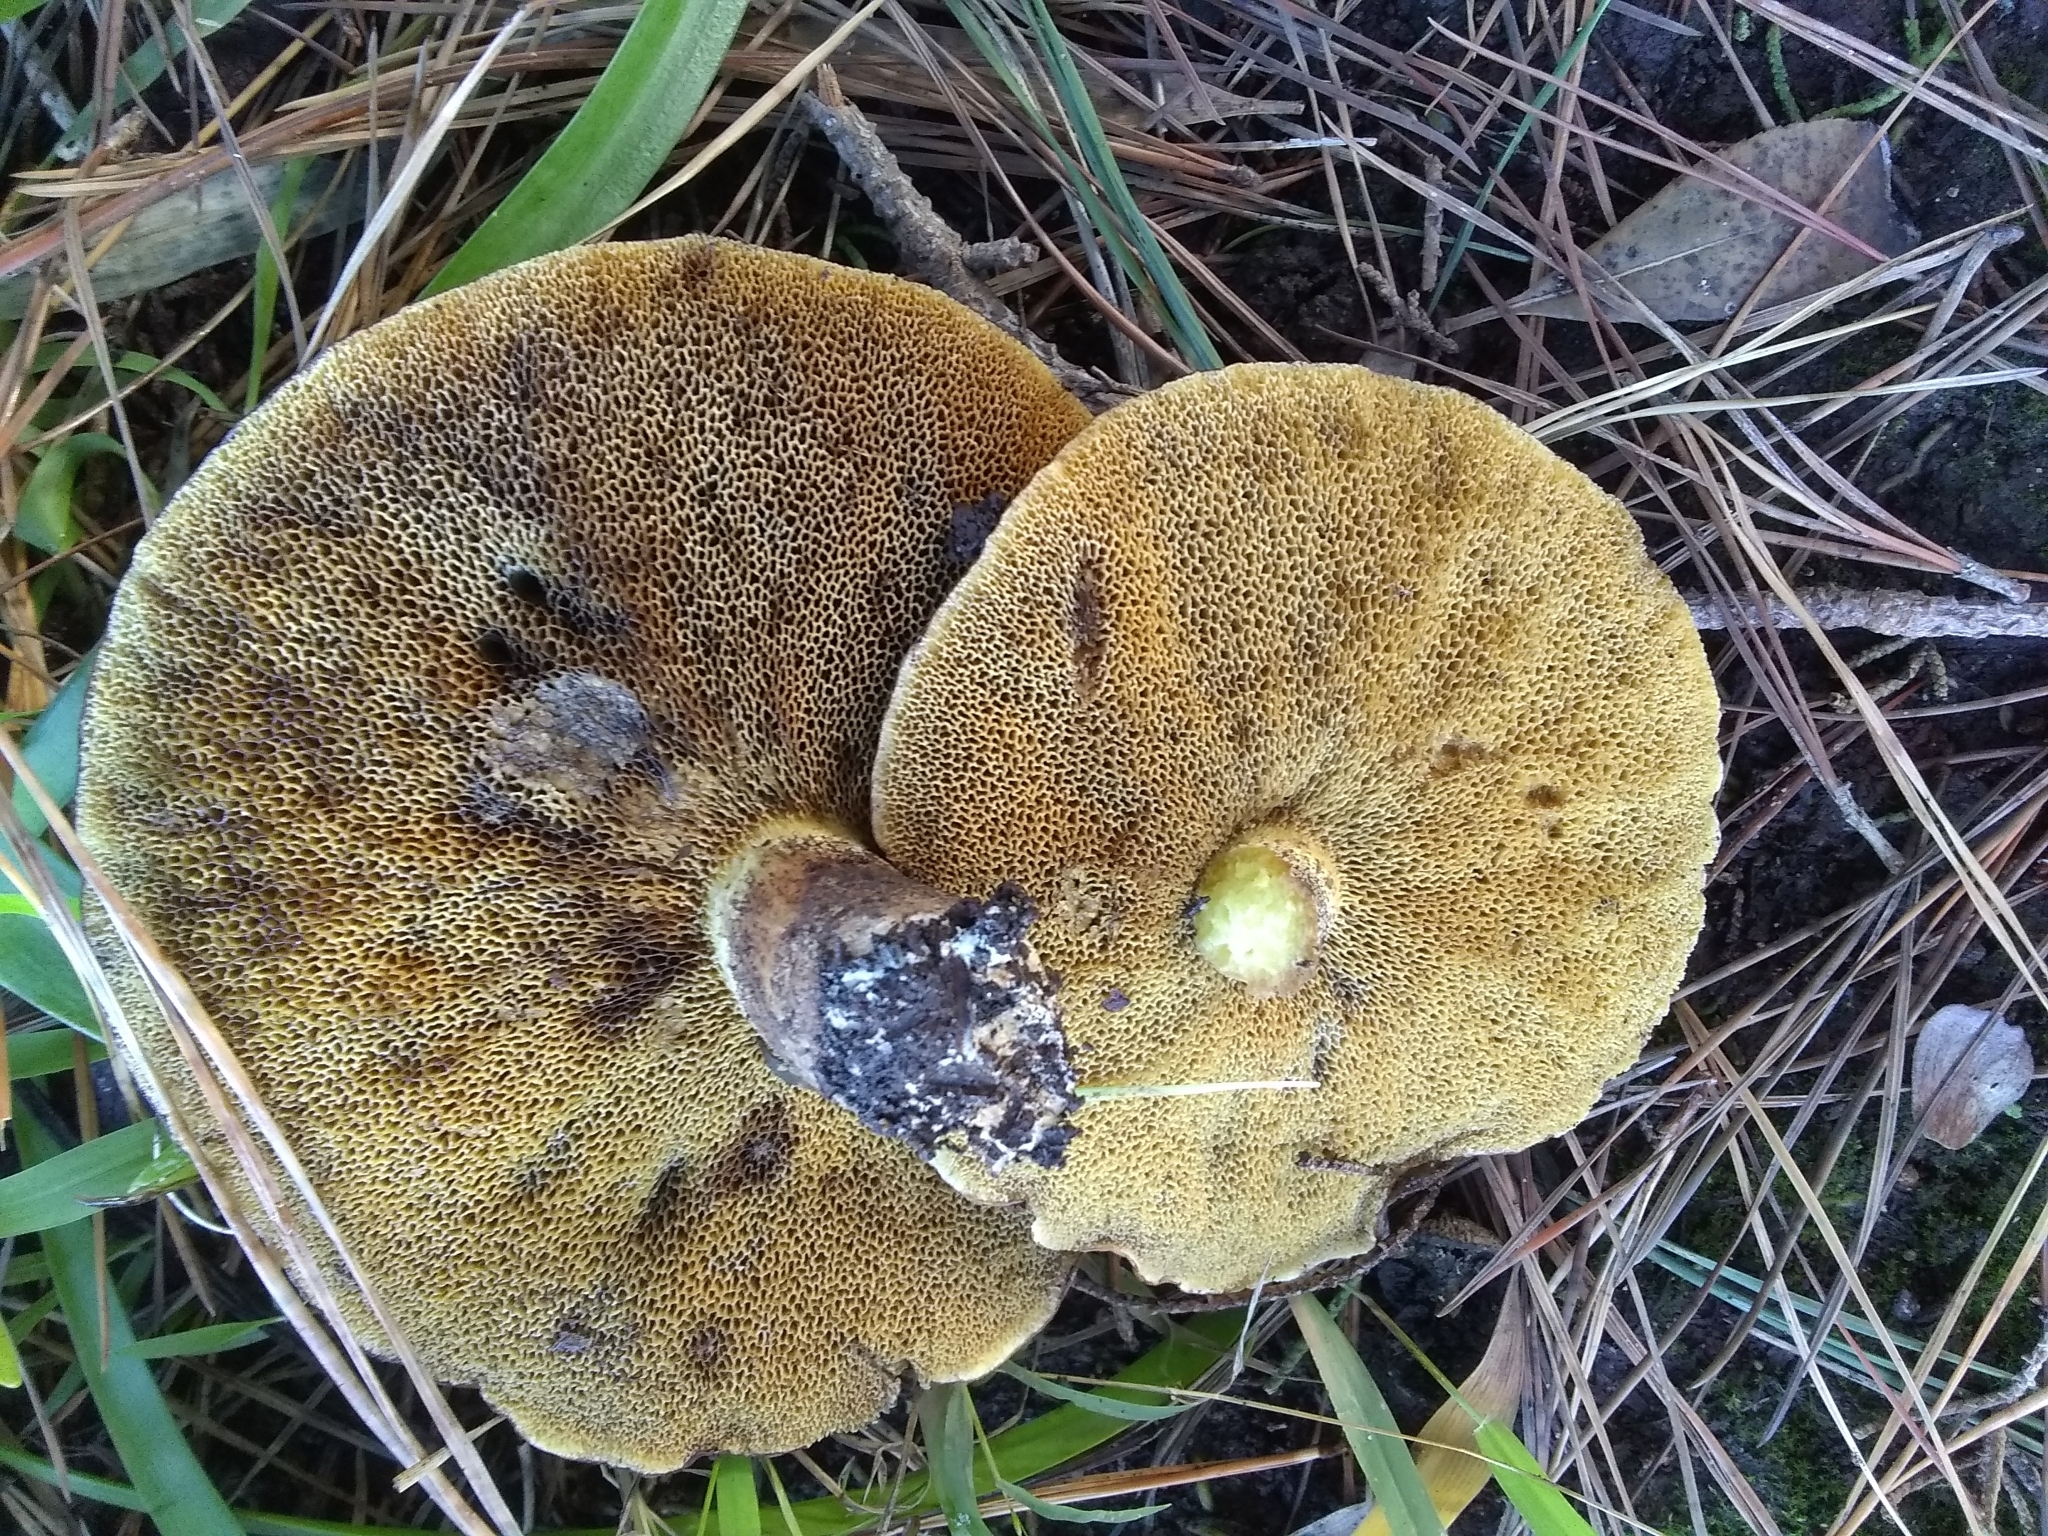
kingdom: Fungi
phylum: Basidiomycota
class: Agaricomycetes
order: Boletales
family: Suillaceae
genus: Suillus
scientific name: Suillus pungens
